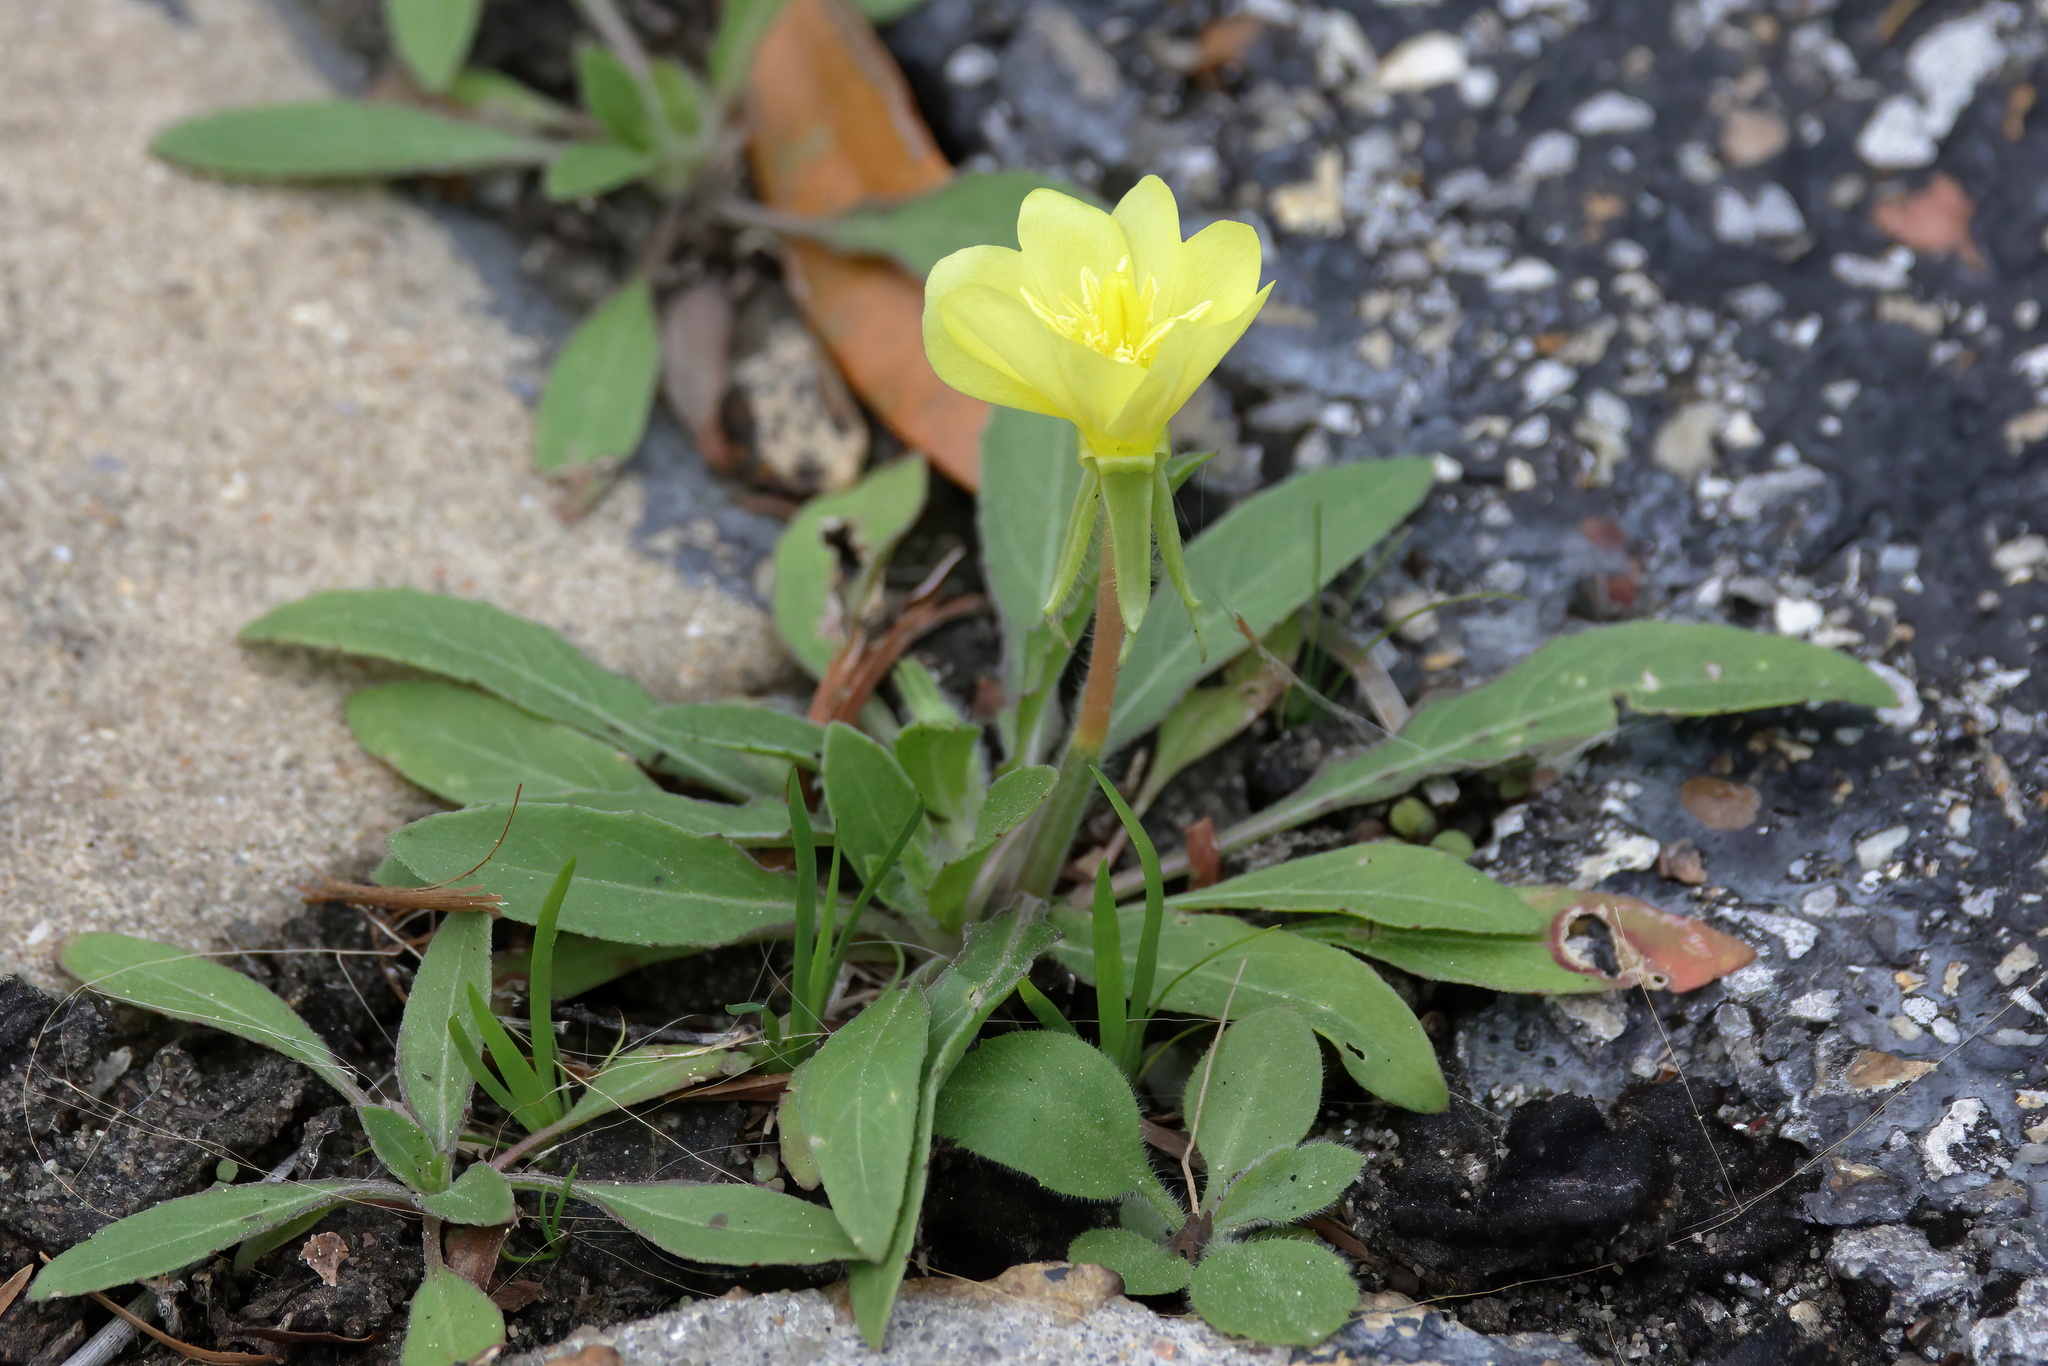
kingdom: Plantae
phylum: Tracheophyta
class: Magnoliopsida
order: Myrtales
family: Onagraceae
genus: Oenothera
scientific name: Oenothera laciniata
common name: Cut-leaved evening-primrose
